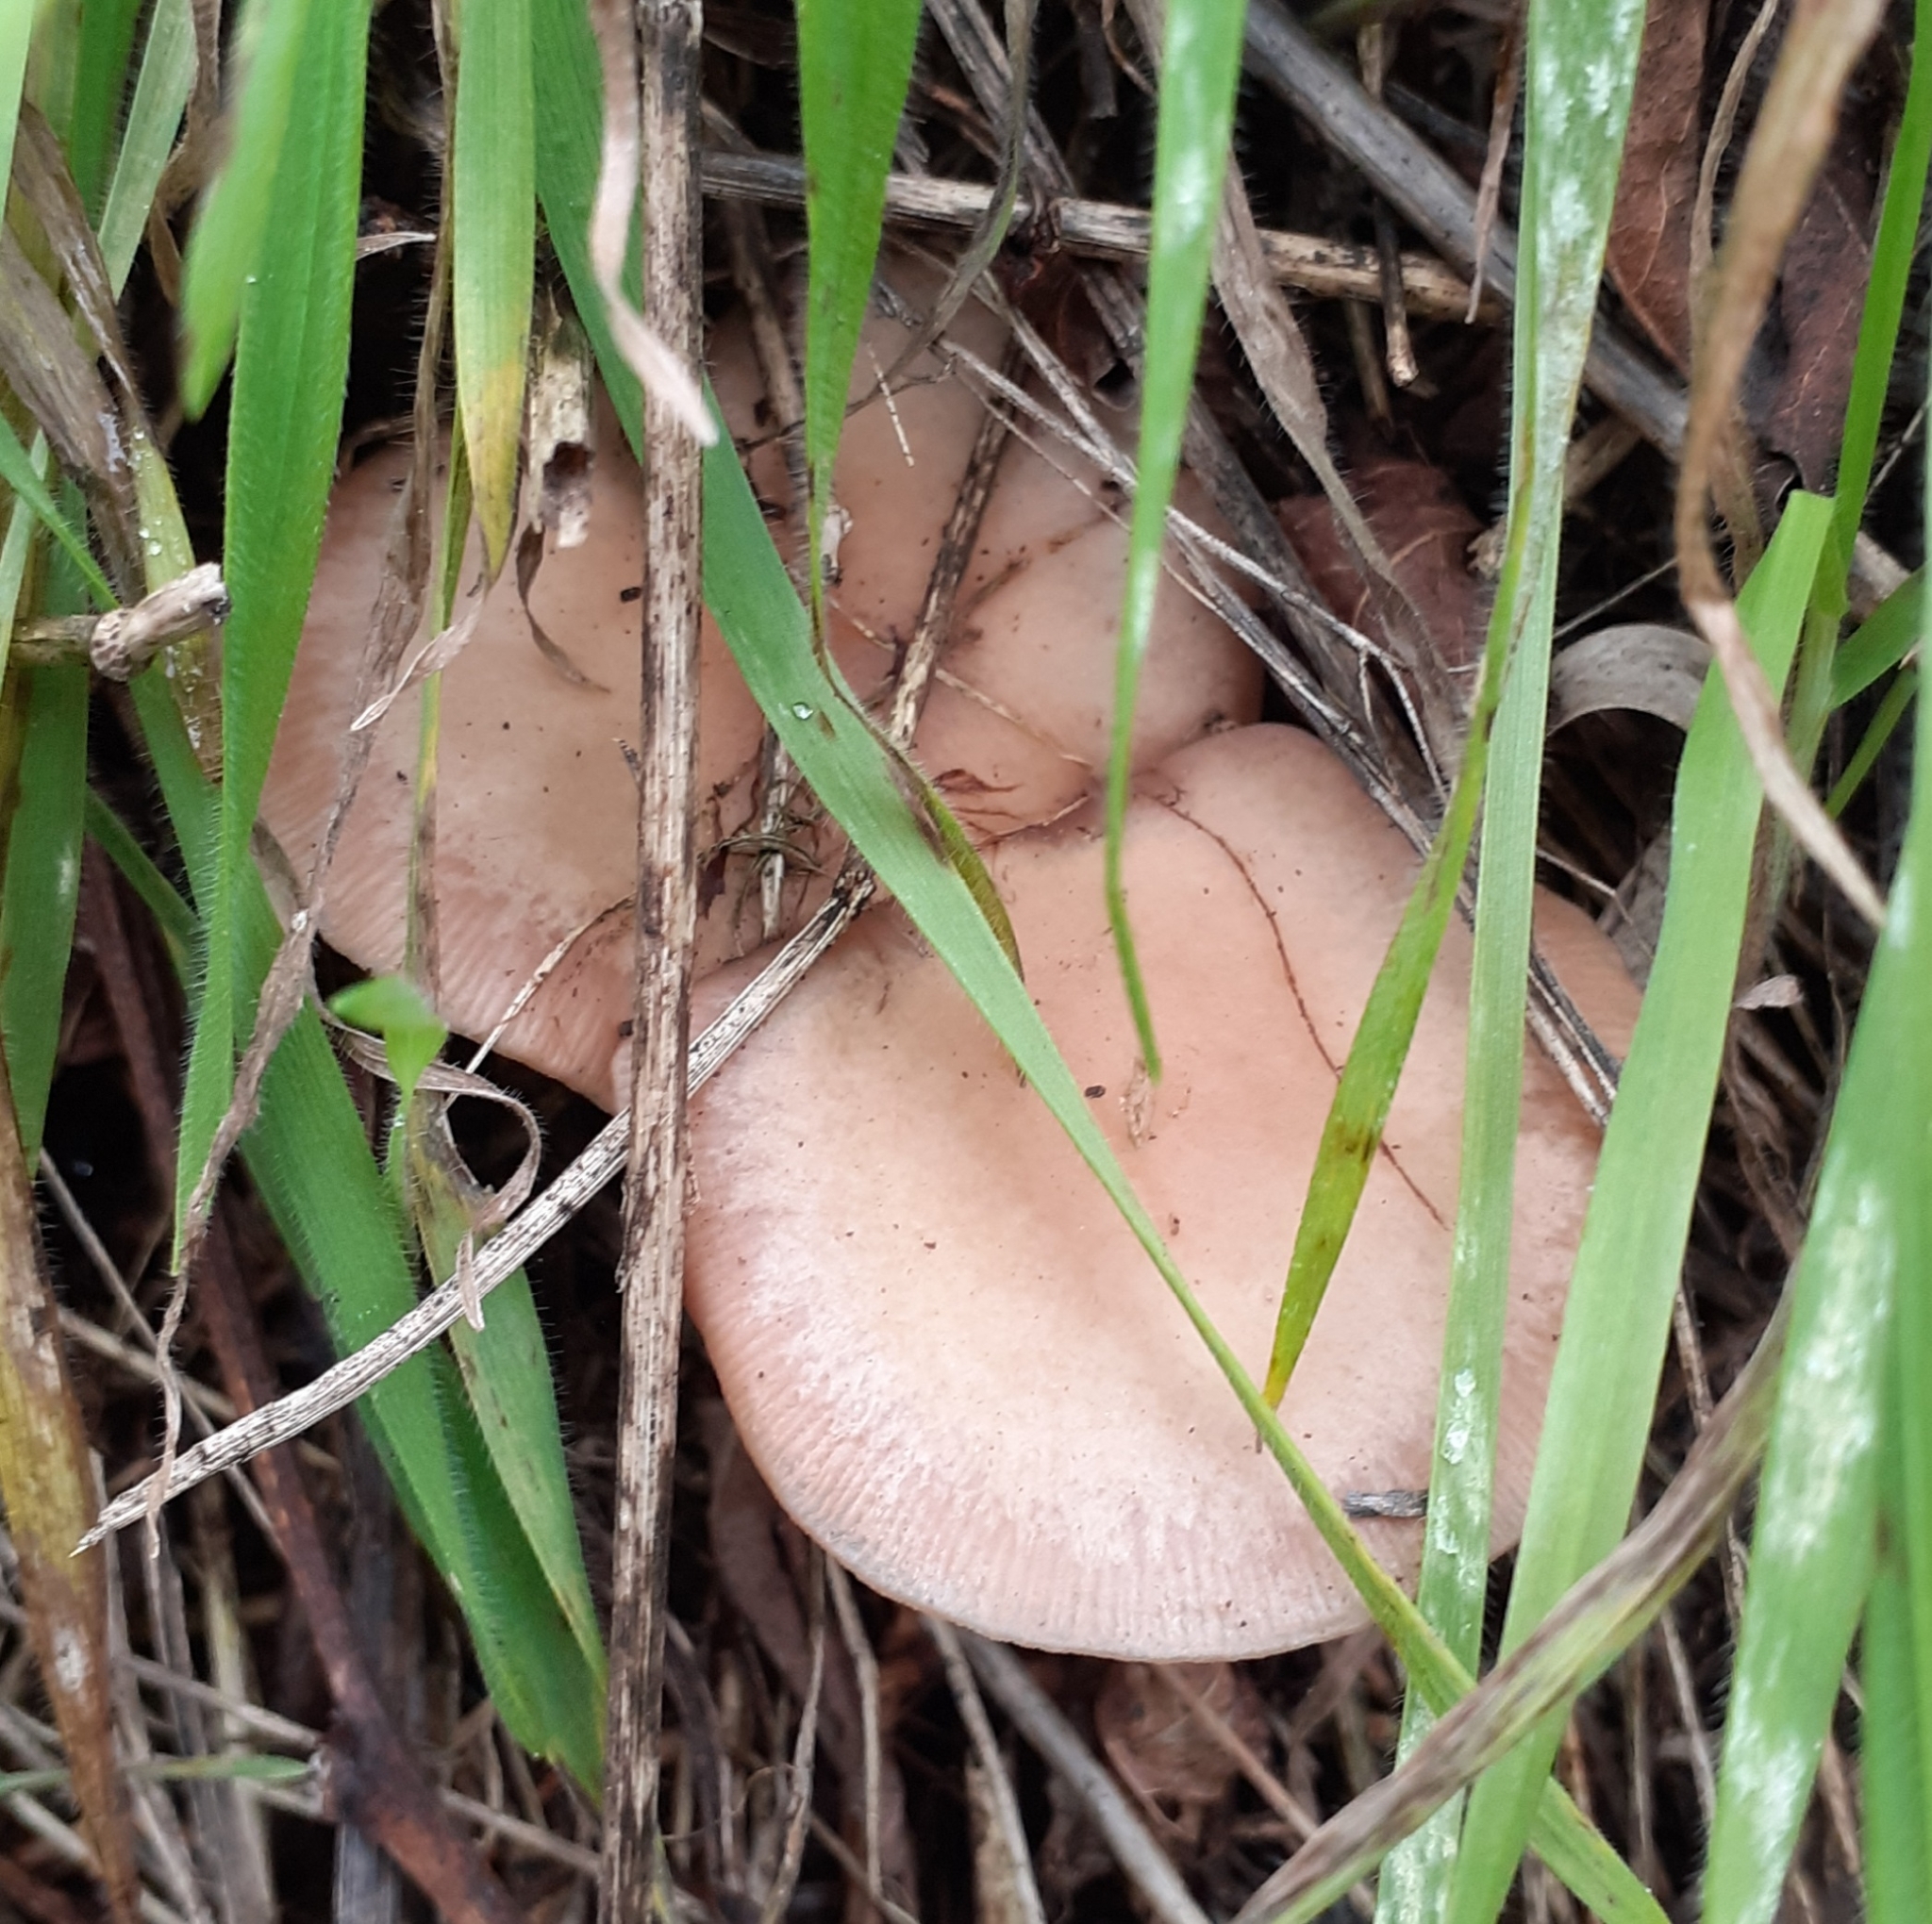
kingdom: Fungi
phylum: Basidiomycota
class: Agaricomycetes
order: Agaricales
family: Tricholomataceae
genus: Collybia
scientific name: Collybia
